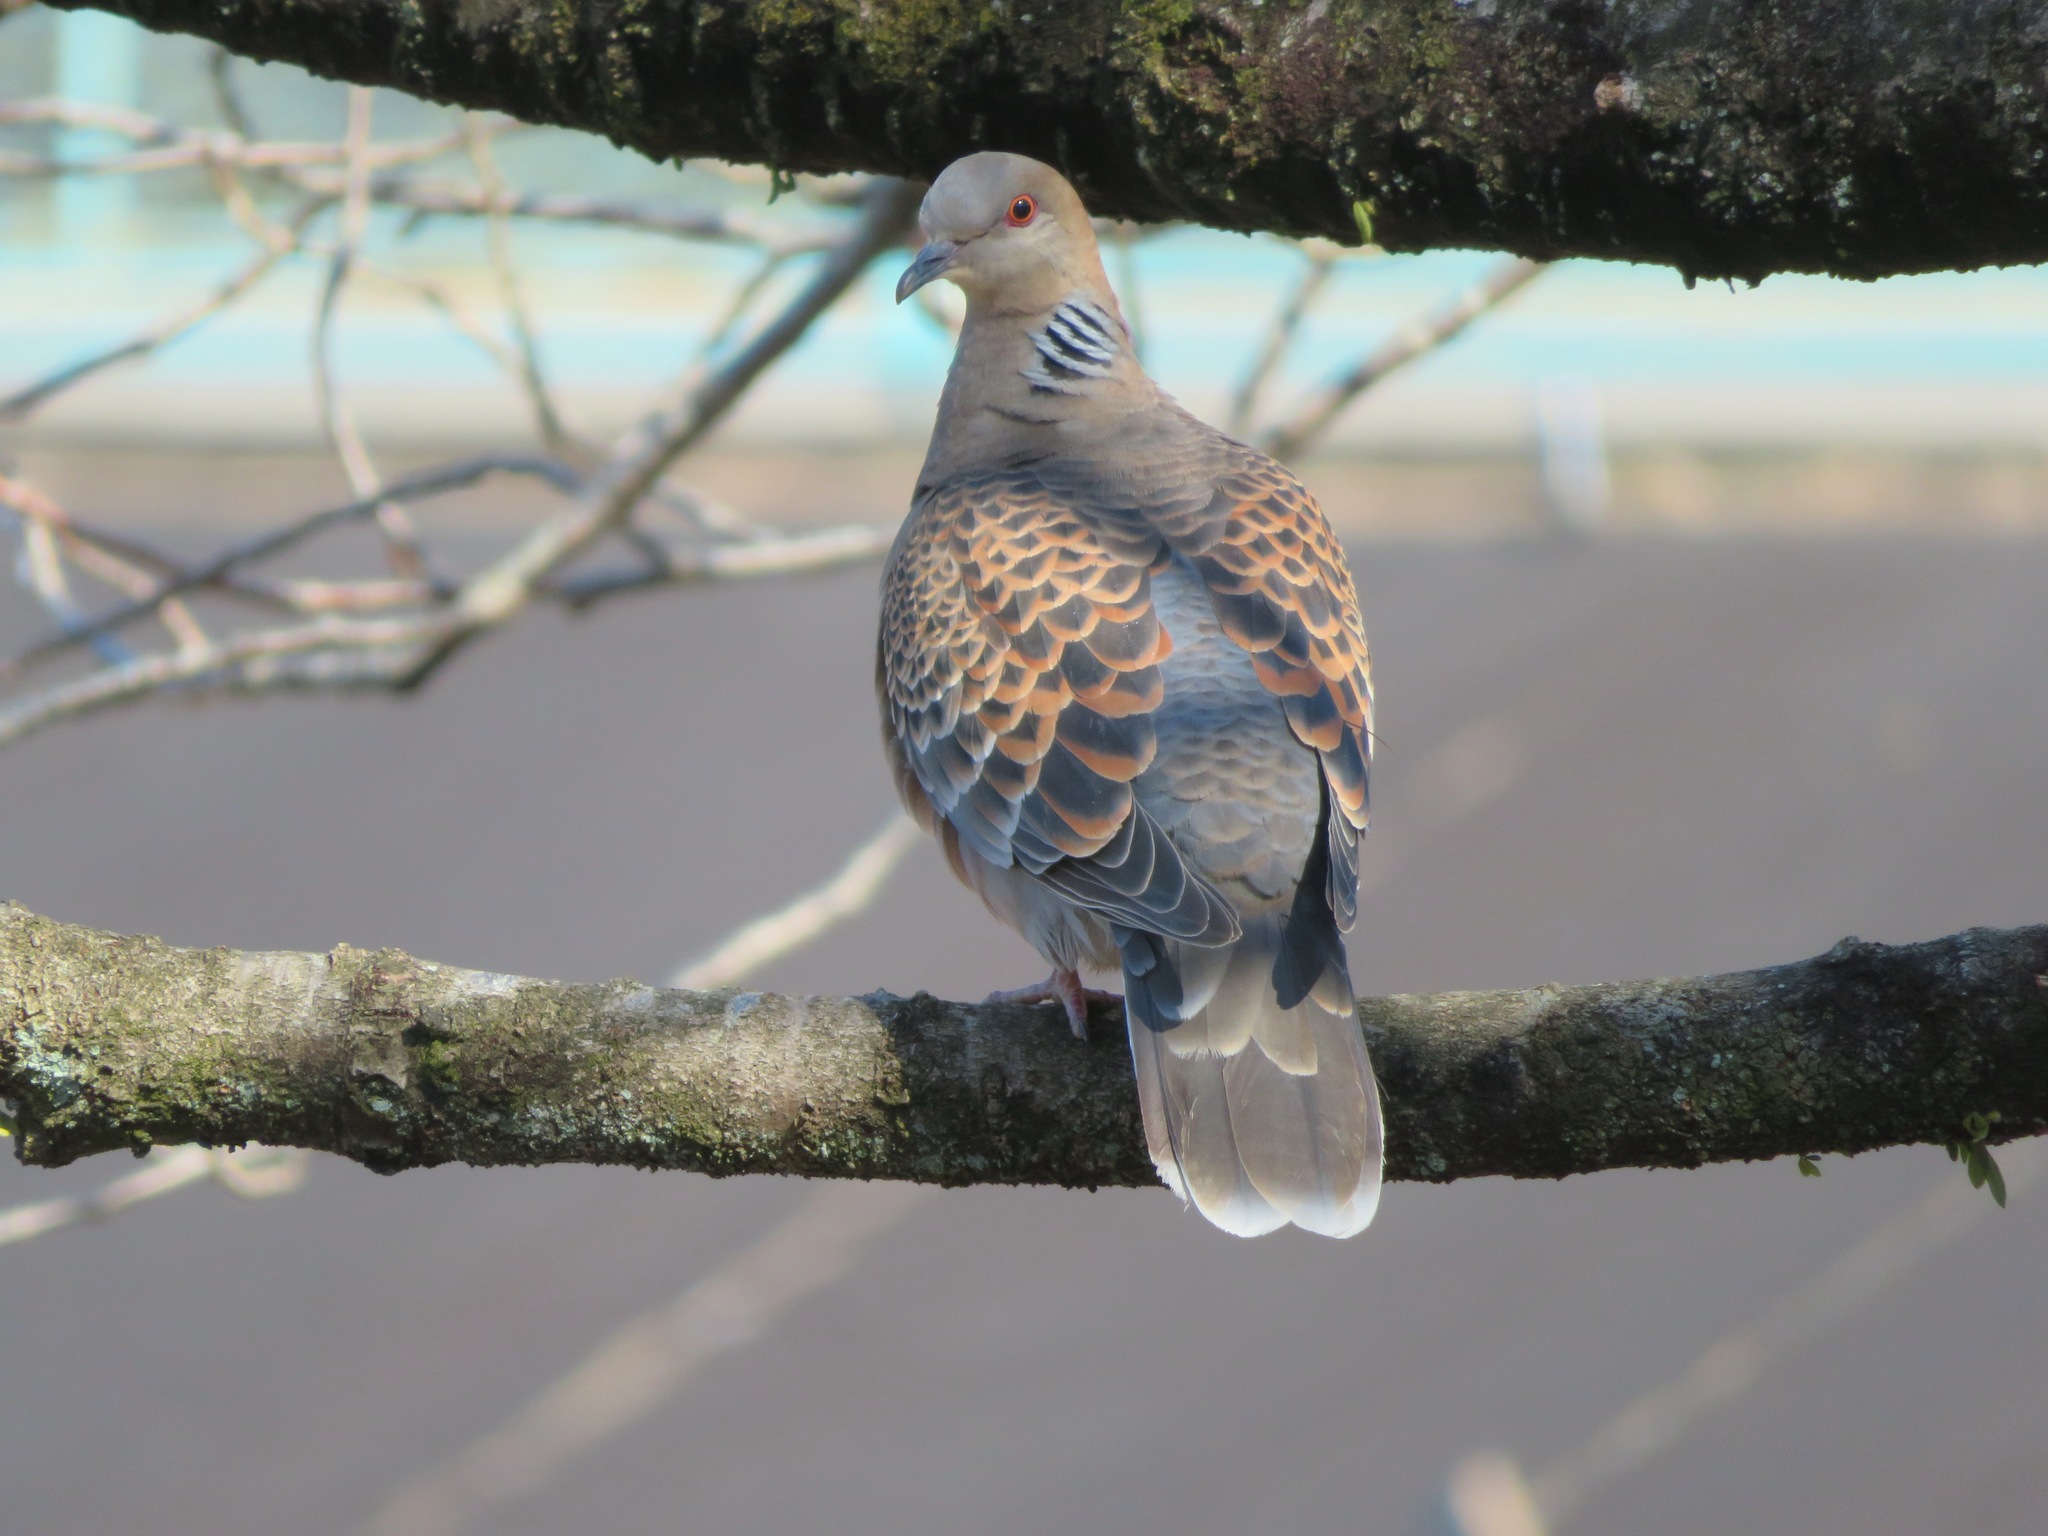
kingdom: Animalia
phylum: Chordata
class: Aves
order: Columbiformes
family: Columbidae
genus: Streptopelia
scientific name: Streptopelia orientalis
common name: Oriental turtle dove
